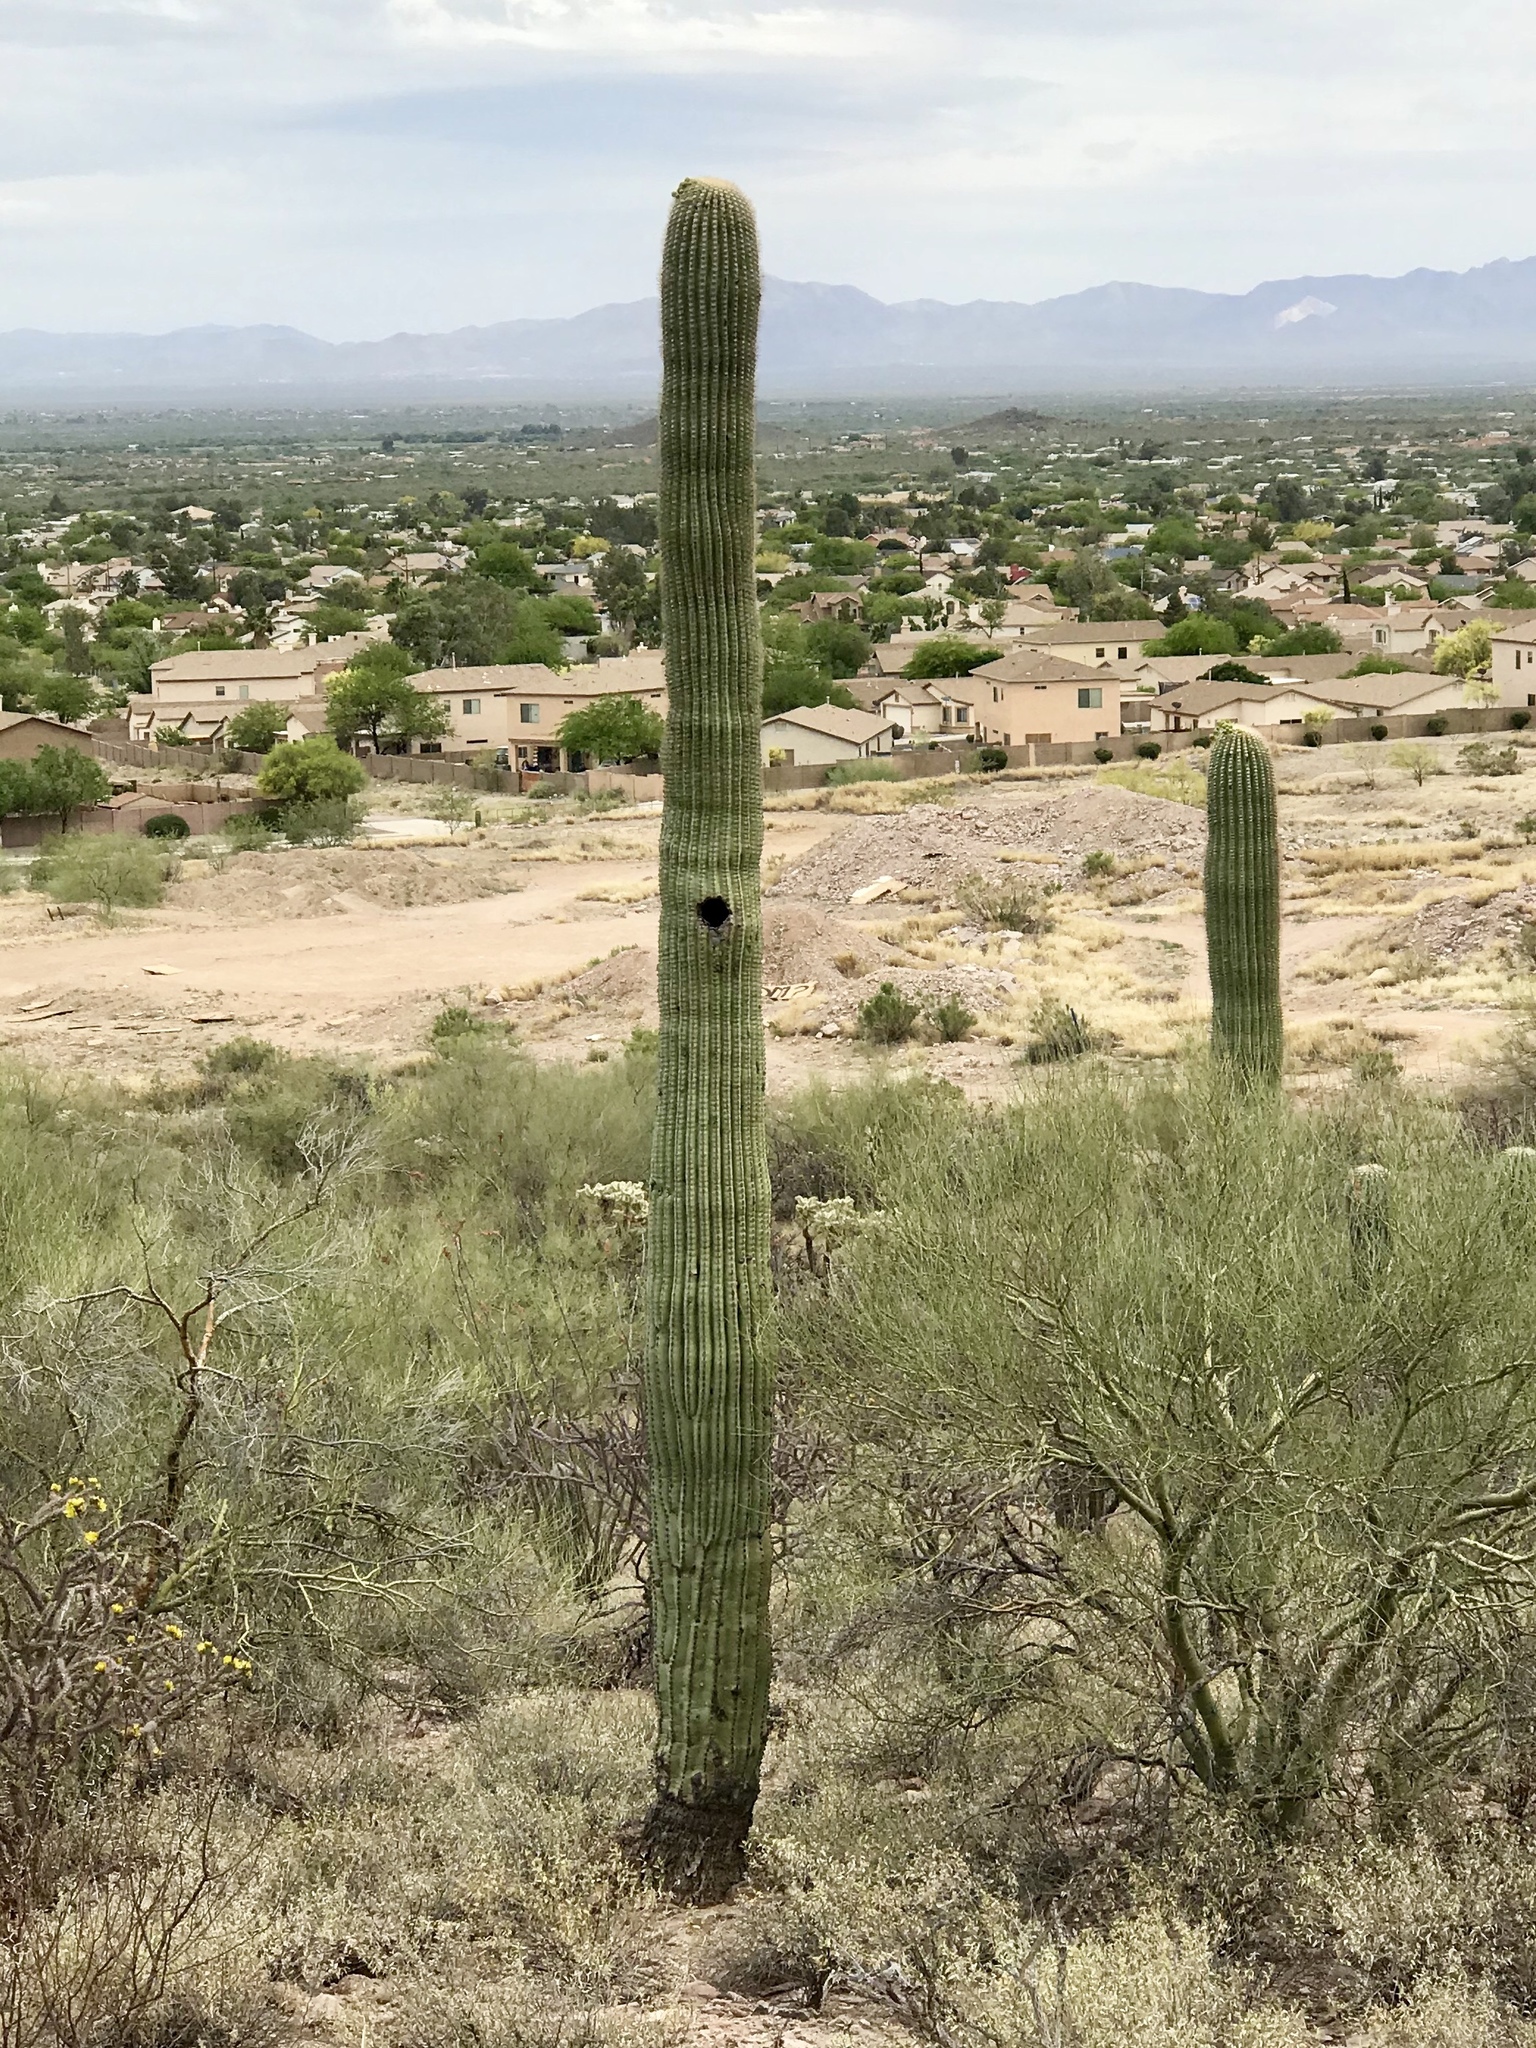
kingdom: Plantae
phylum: Tracheophyta
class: Magnoliopsida
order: Caryophyllales
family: Cactaceae
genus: Carnegiea
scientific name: Carnegiea gigantea
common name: Saguaro
